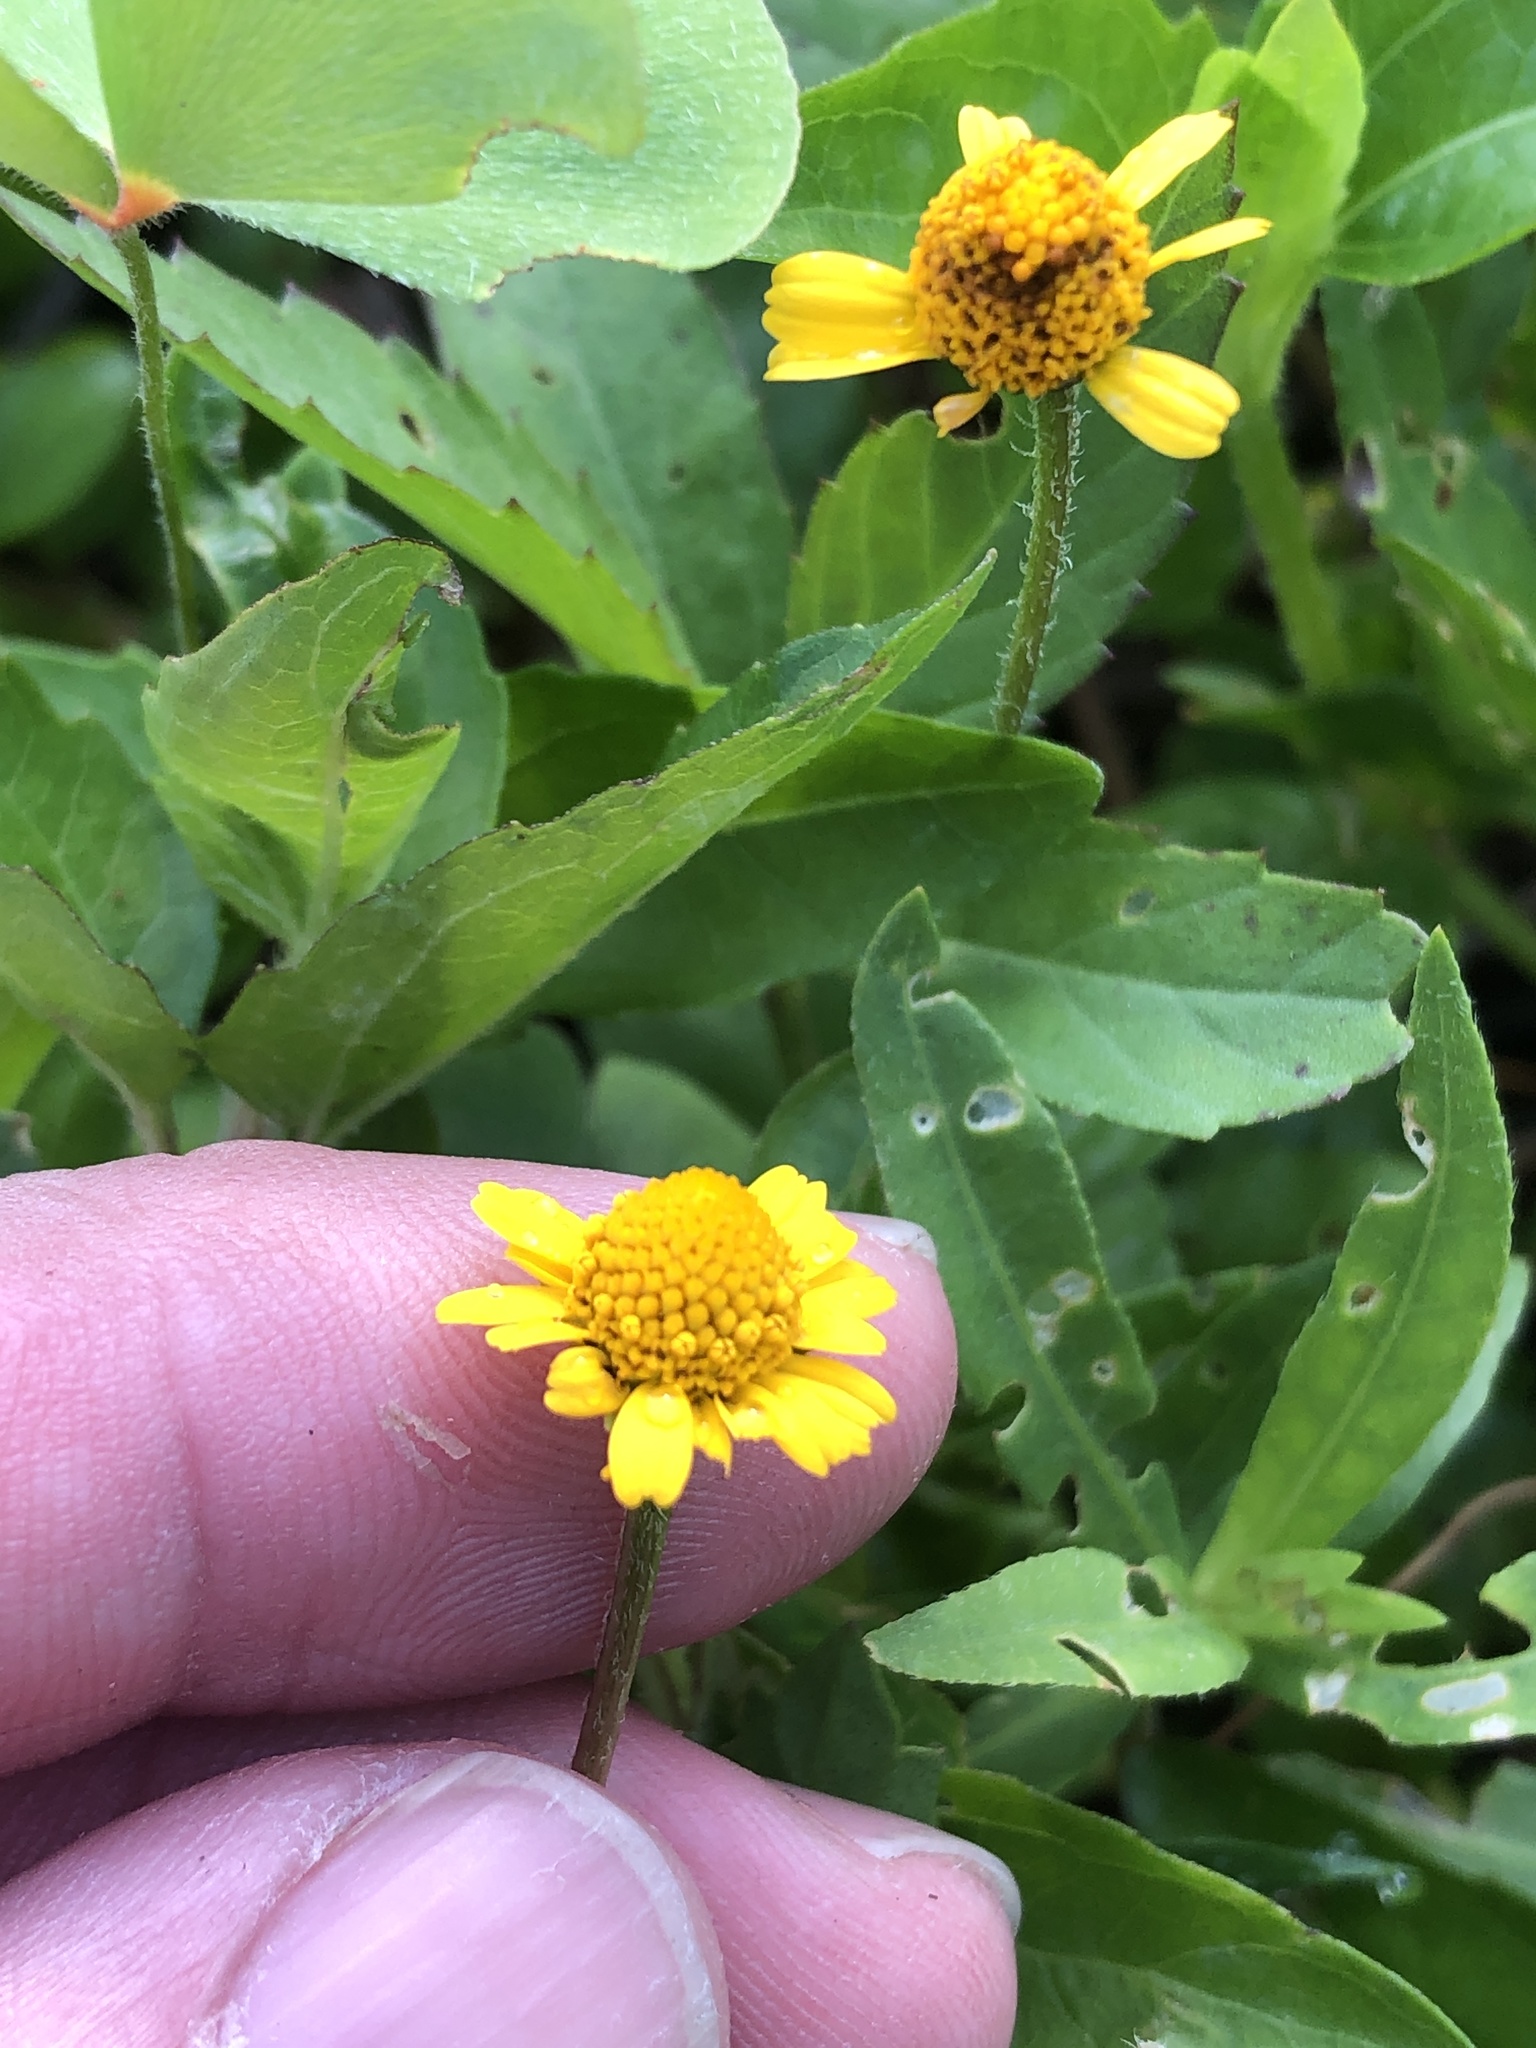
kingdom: Plantae
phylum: Tracheophyta
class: Magnoliopsida
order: Asterales
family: Asteraceae
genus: Acmella
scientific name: Acmella repens
